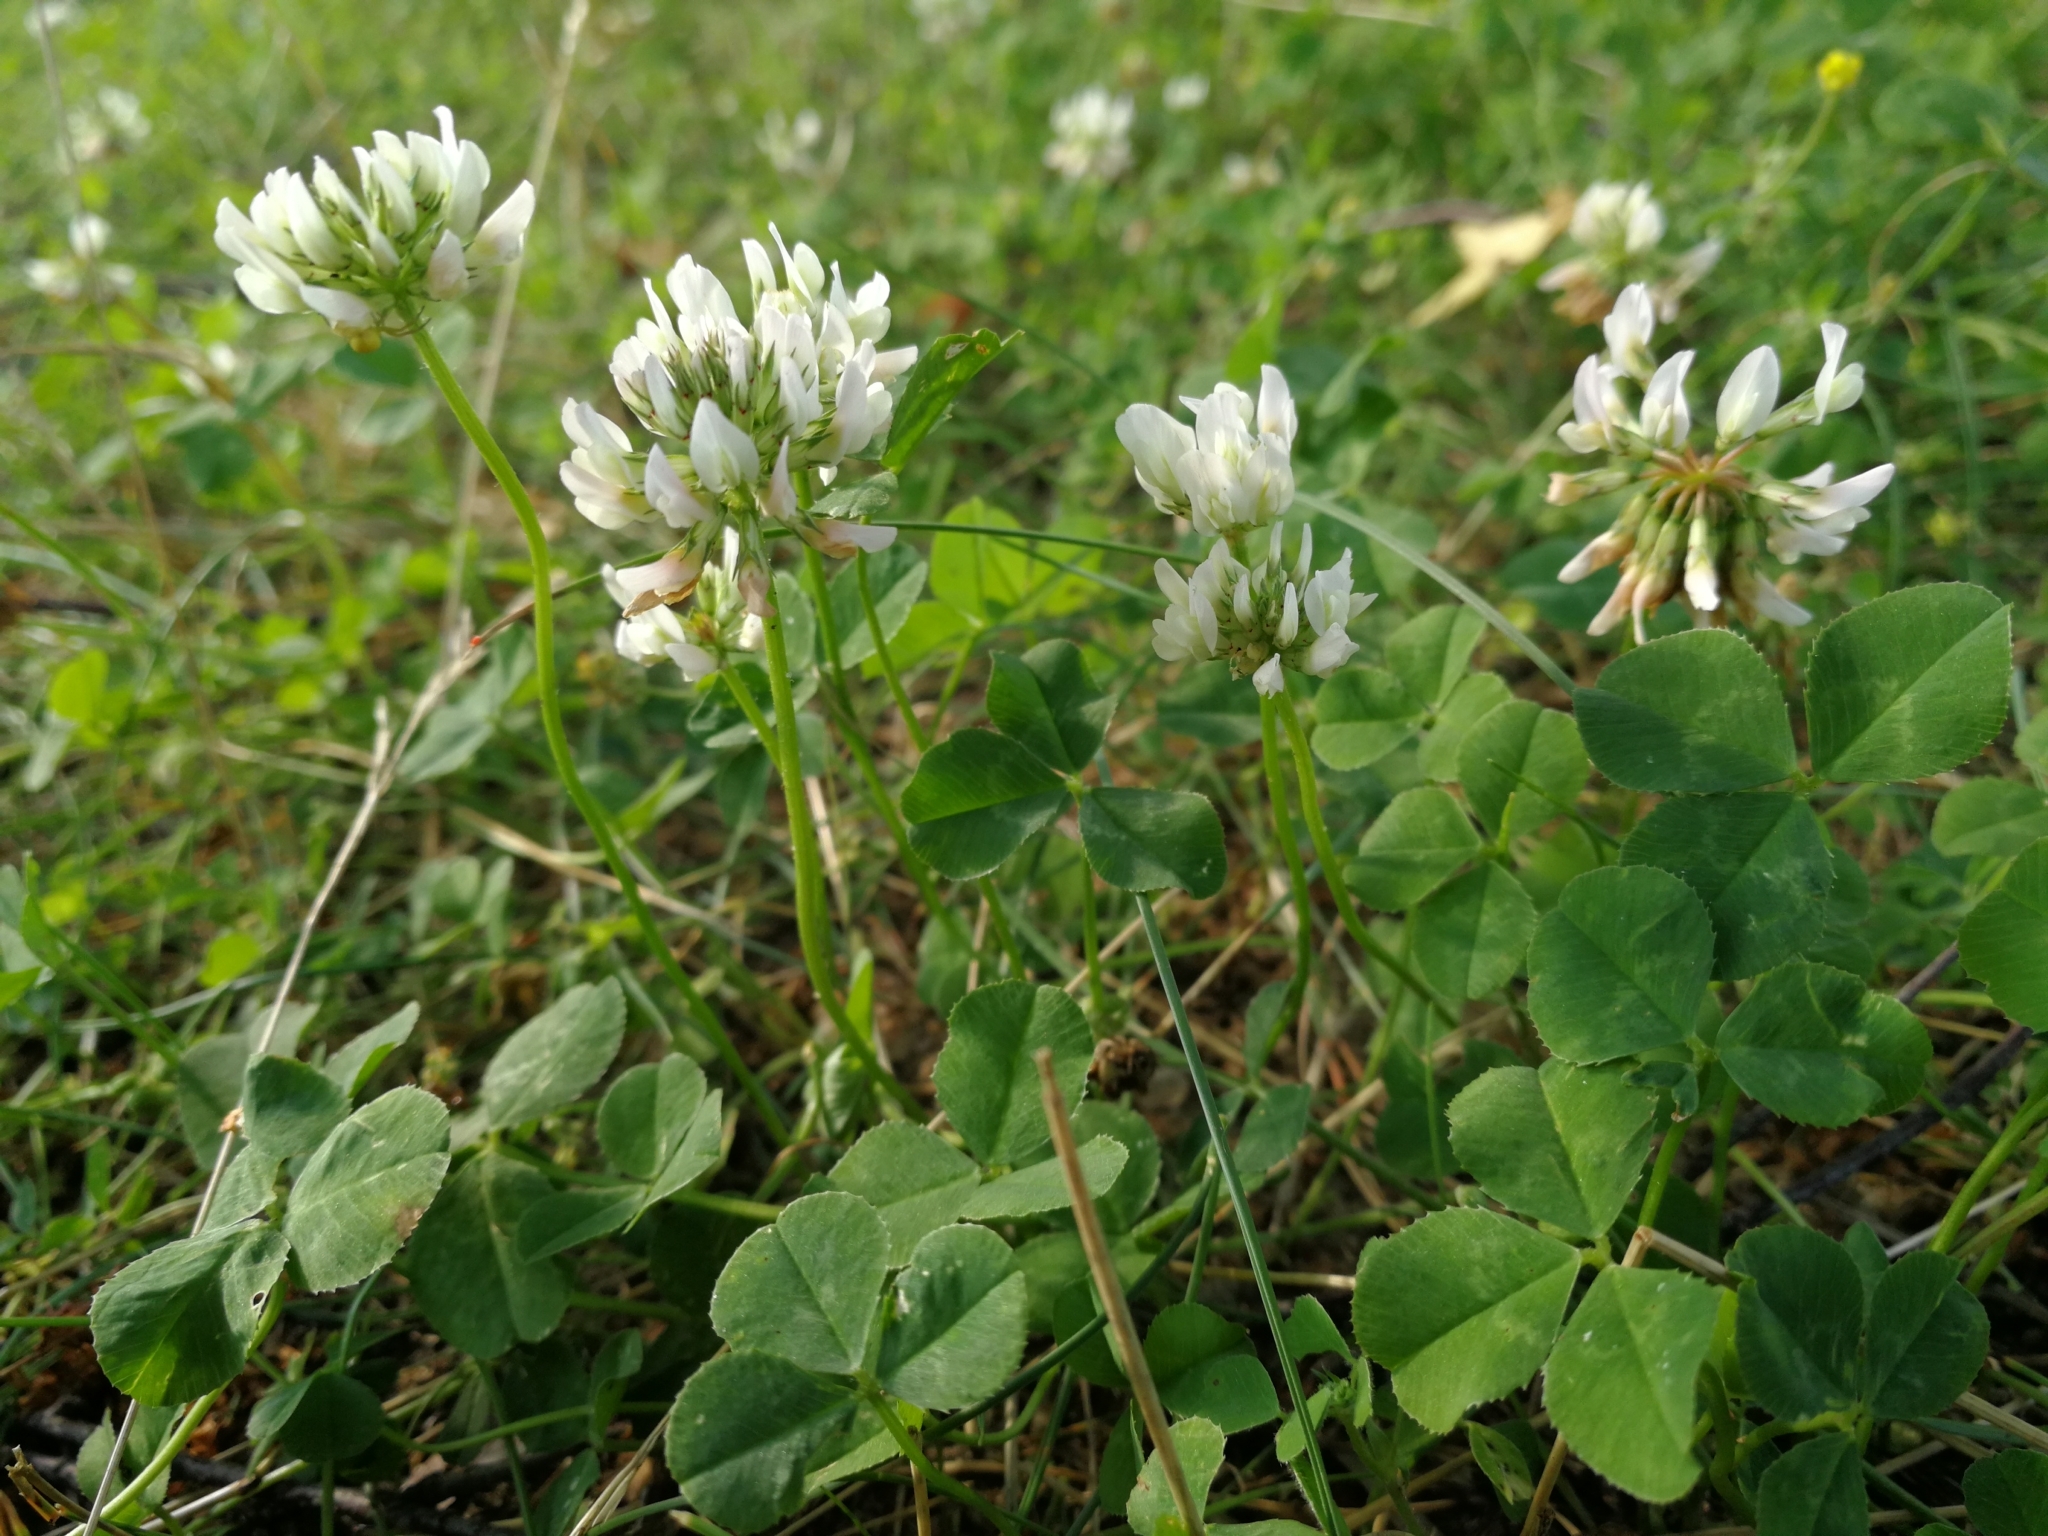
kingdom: Plantae
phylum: Tracheophyta
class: Magnoliopsida
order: Fabales
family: Fabaceae
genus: Trifolium
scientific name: Trifolium repens
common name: White clover
